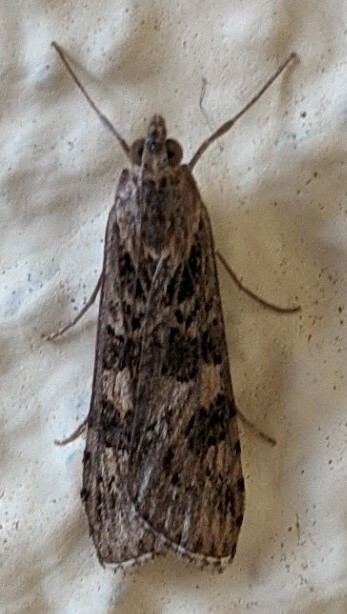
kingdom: Animalia
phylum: Arthropoda
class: Insecta
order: Lepidoptera
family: Crambidae
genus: Nomophila
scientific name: Nomophila noctuella
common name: Rush veneer
